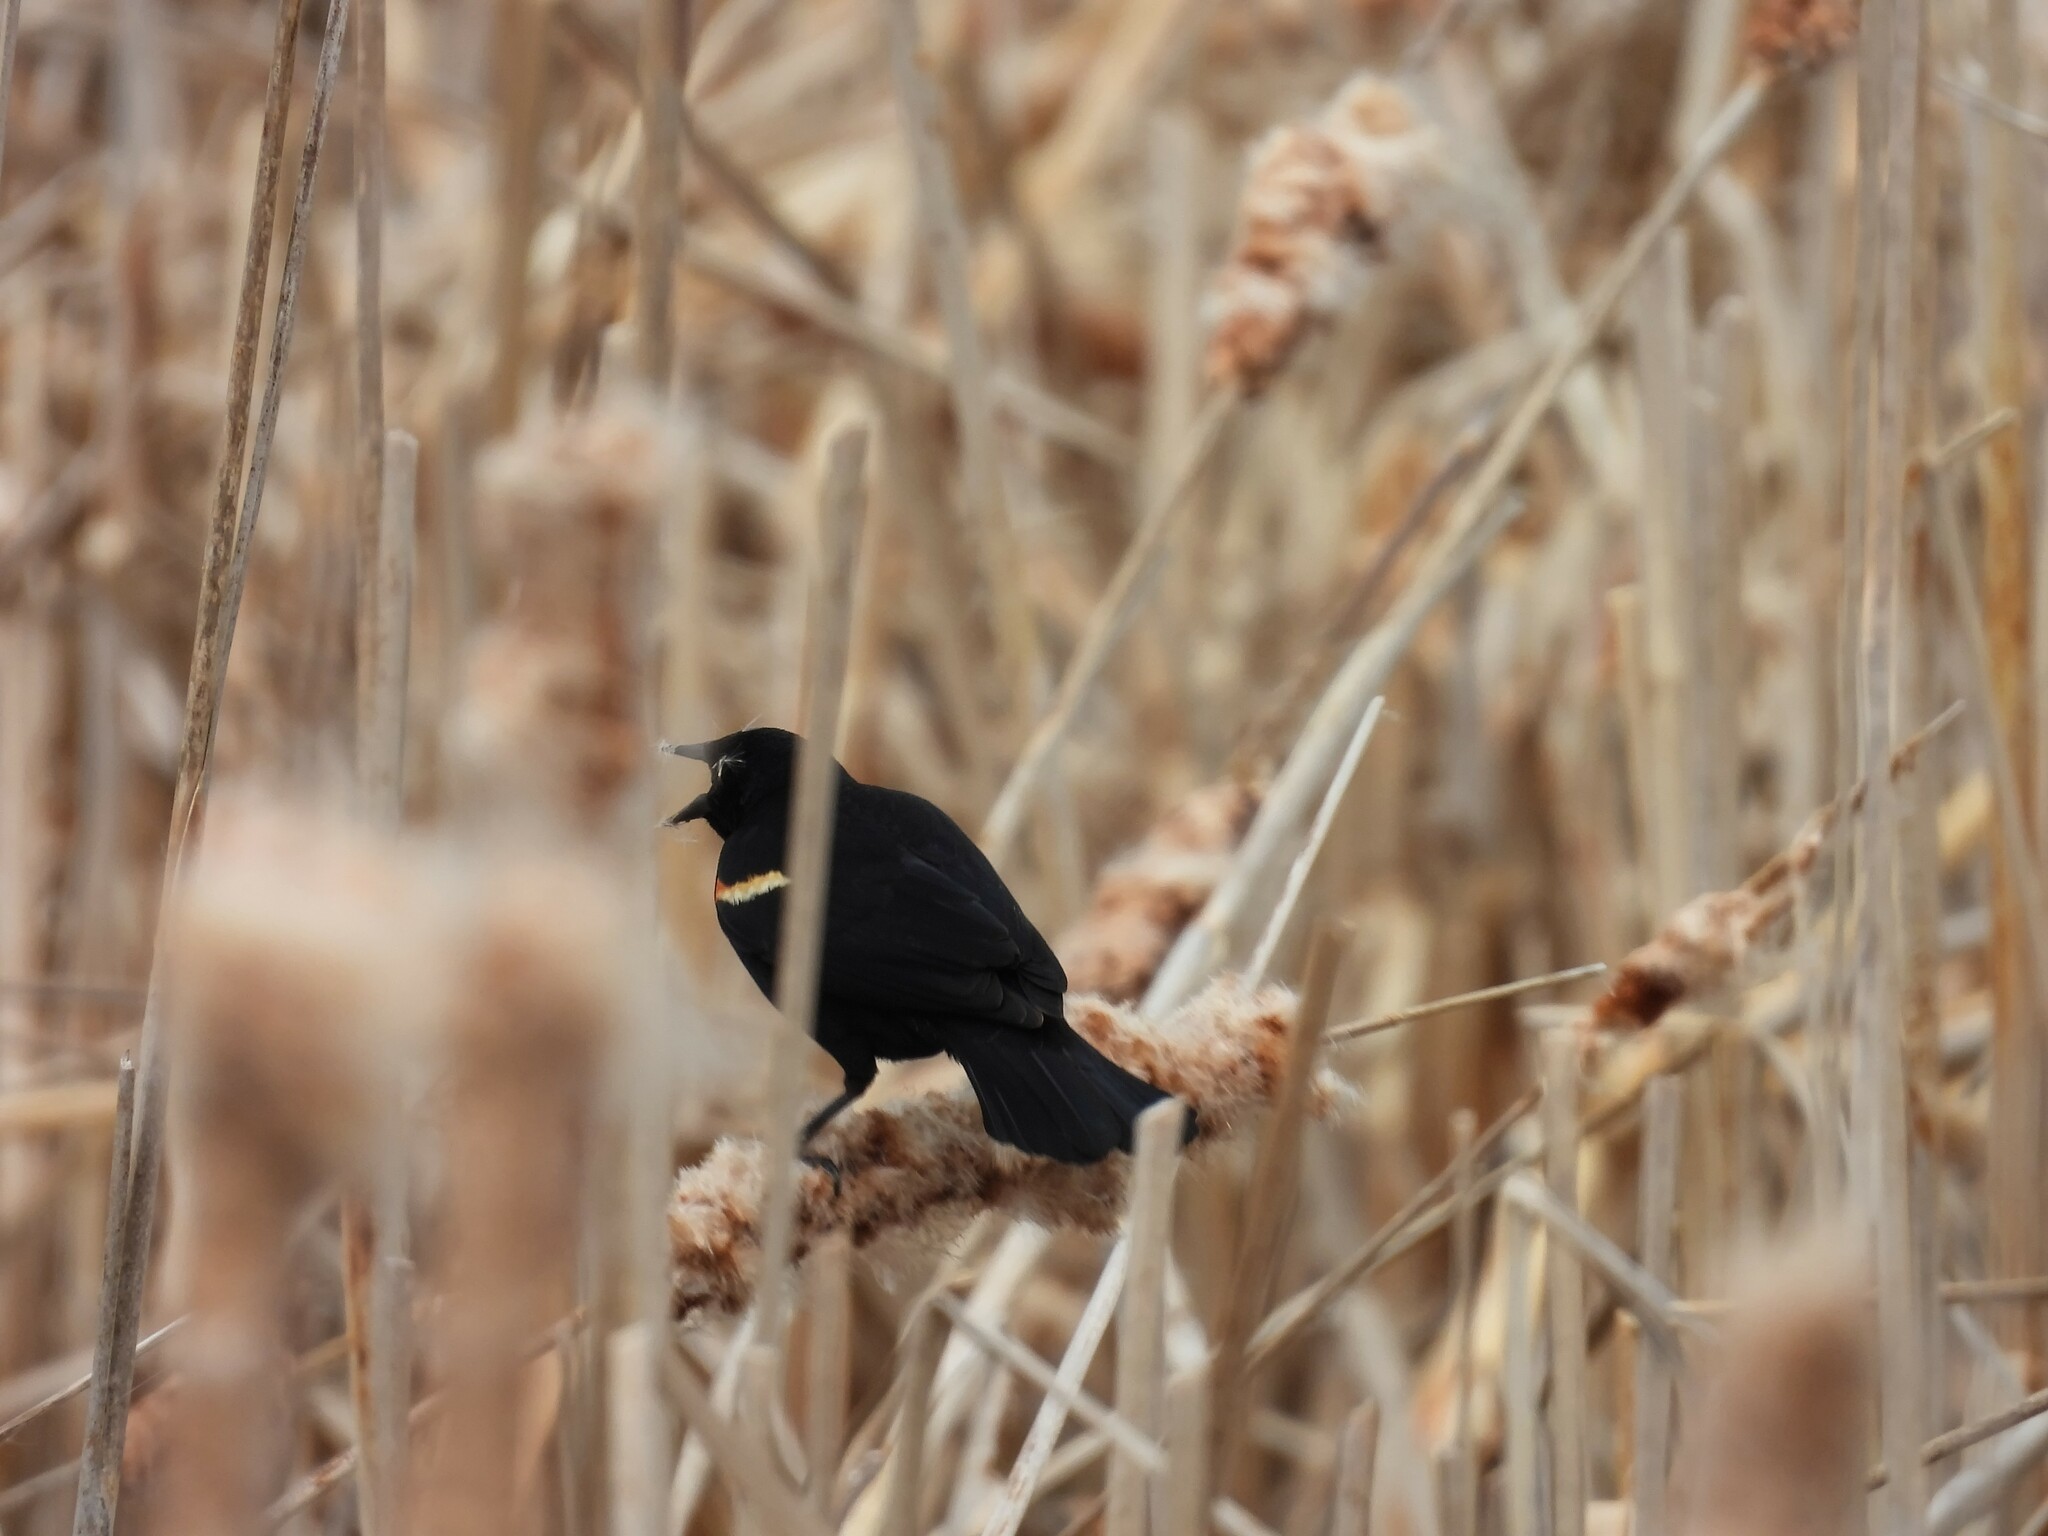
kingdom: Animalia
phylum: Chordata
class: Aves
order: Passeriformes
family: Icteridae
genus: Agelaius
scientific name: Agelaius phoeniceus
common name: Red-winged blackbird
